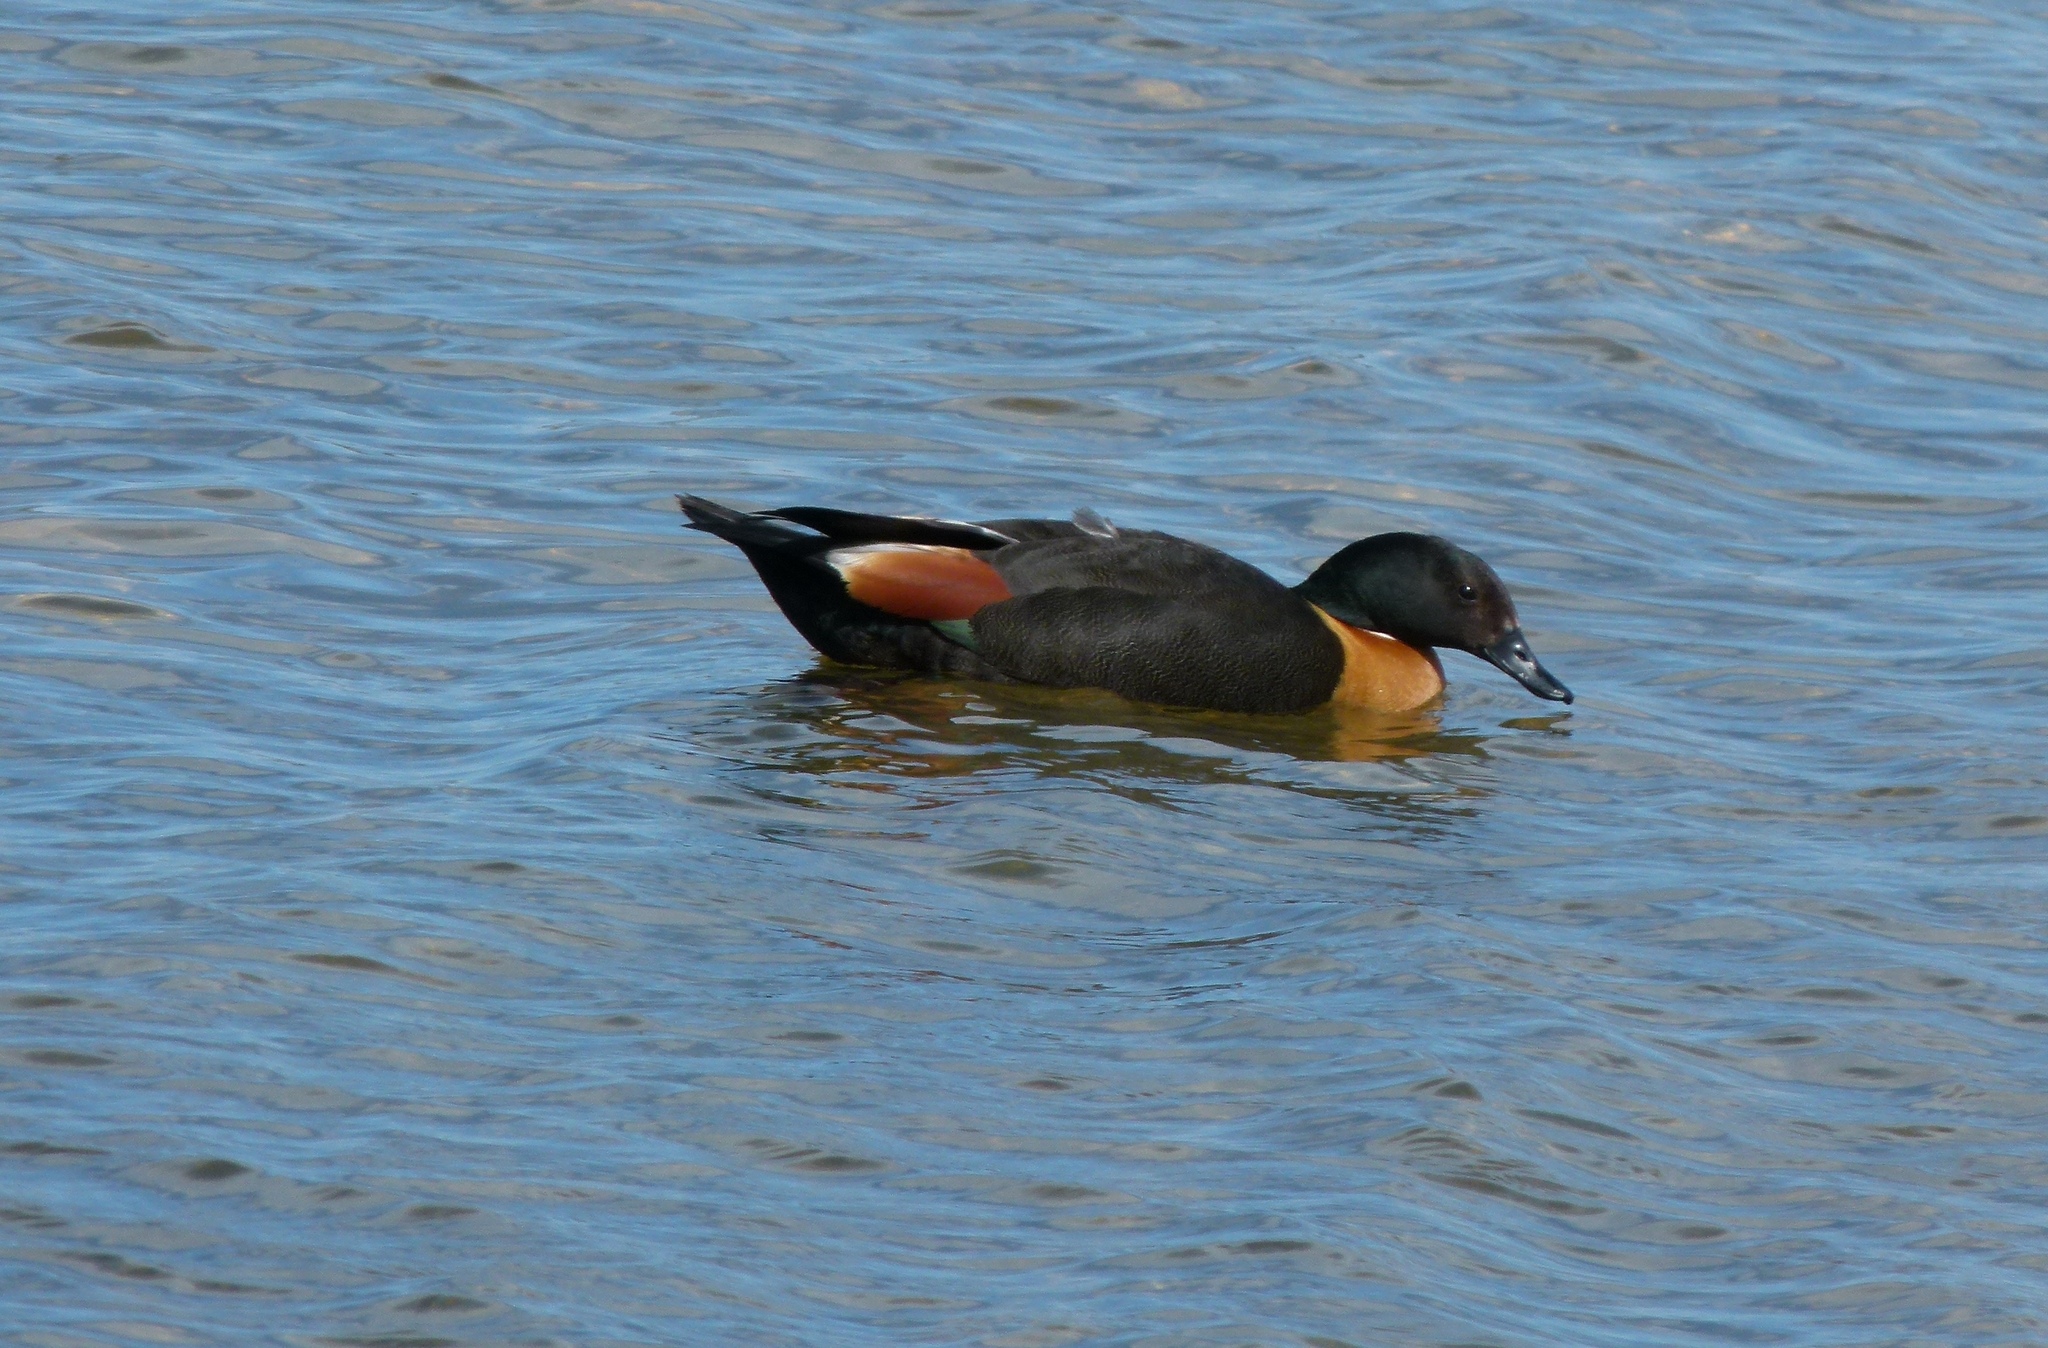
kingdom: Animalia
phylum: Chordata
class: Aves
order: Anseriformes
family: Anatidae
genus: Tadorna
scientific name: Tadorna tadornoides
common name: Australian shelduck
